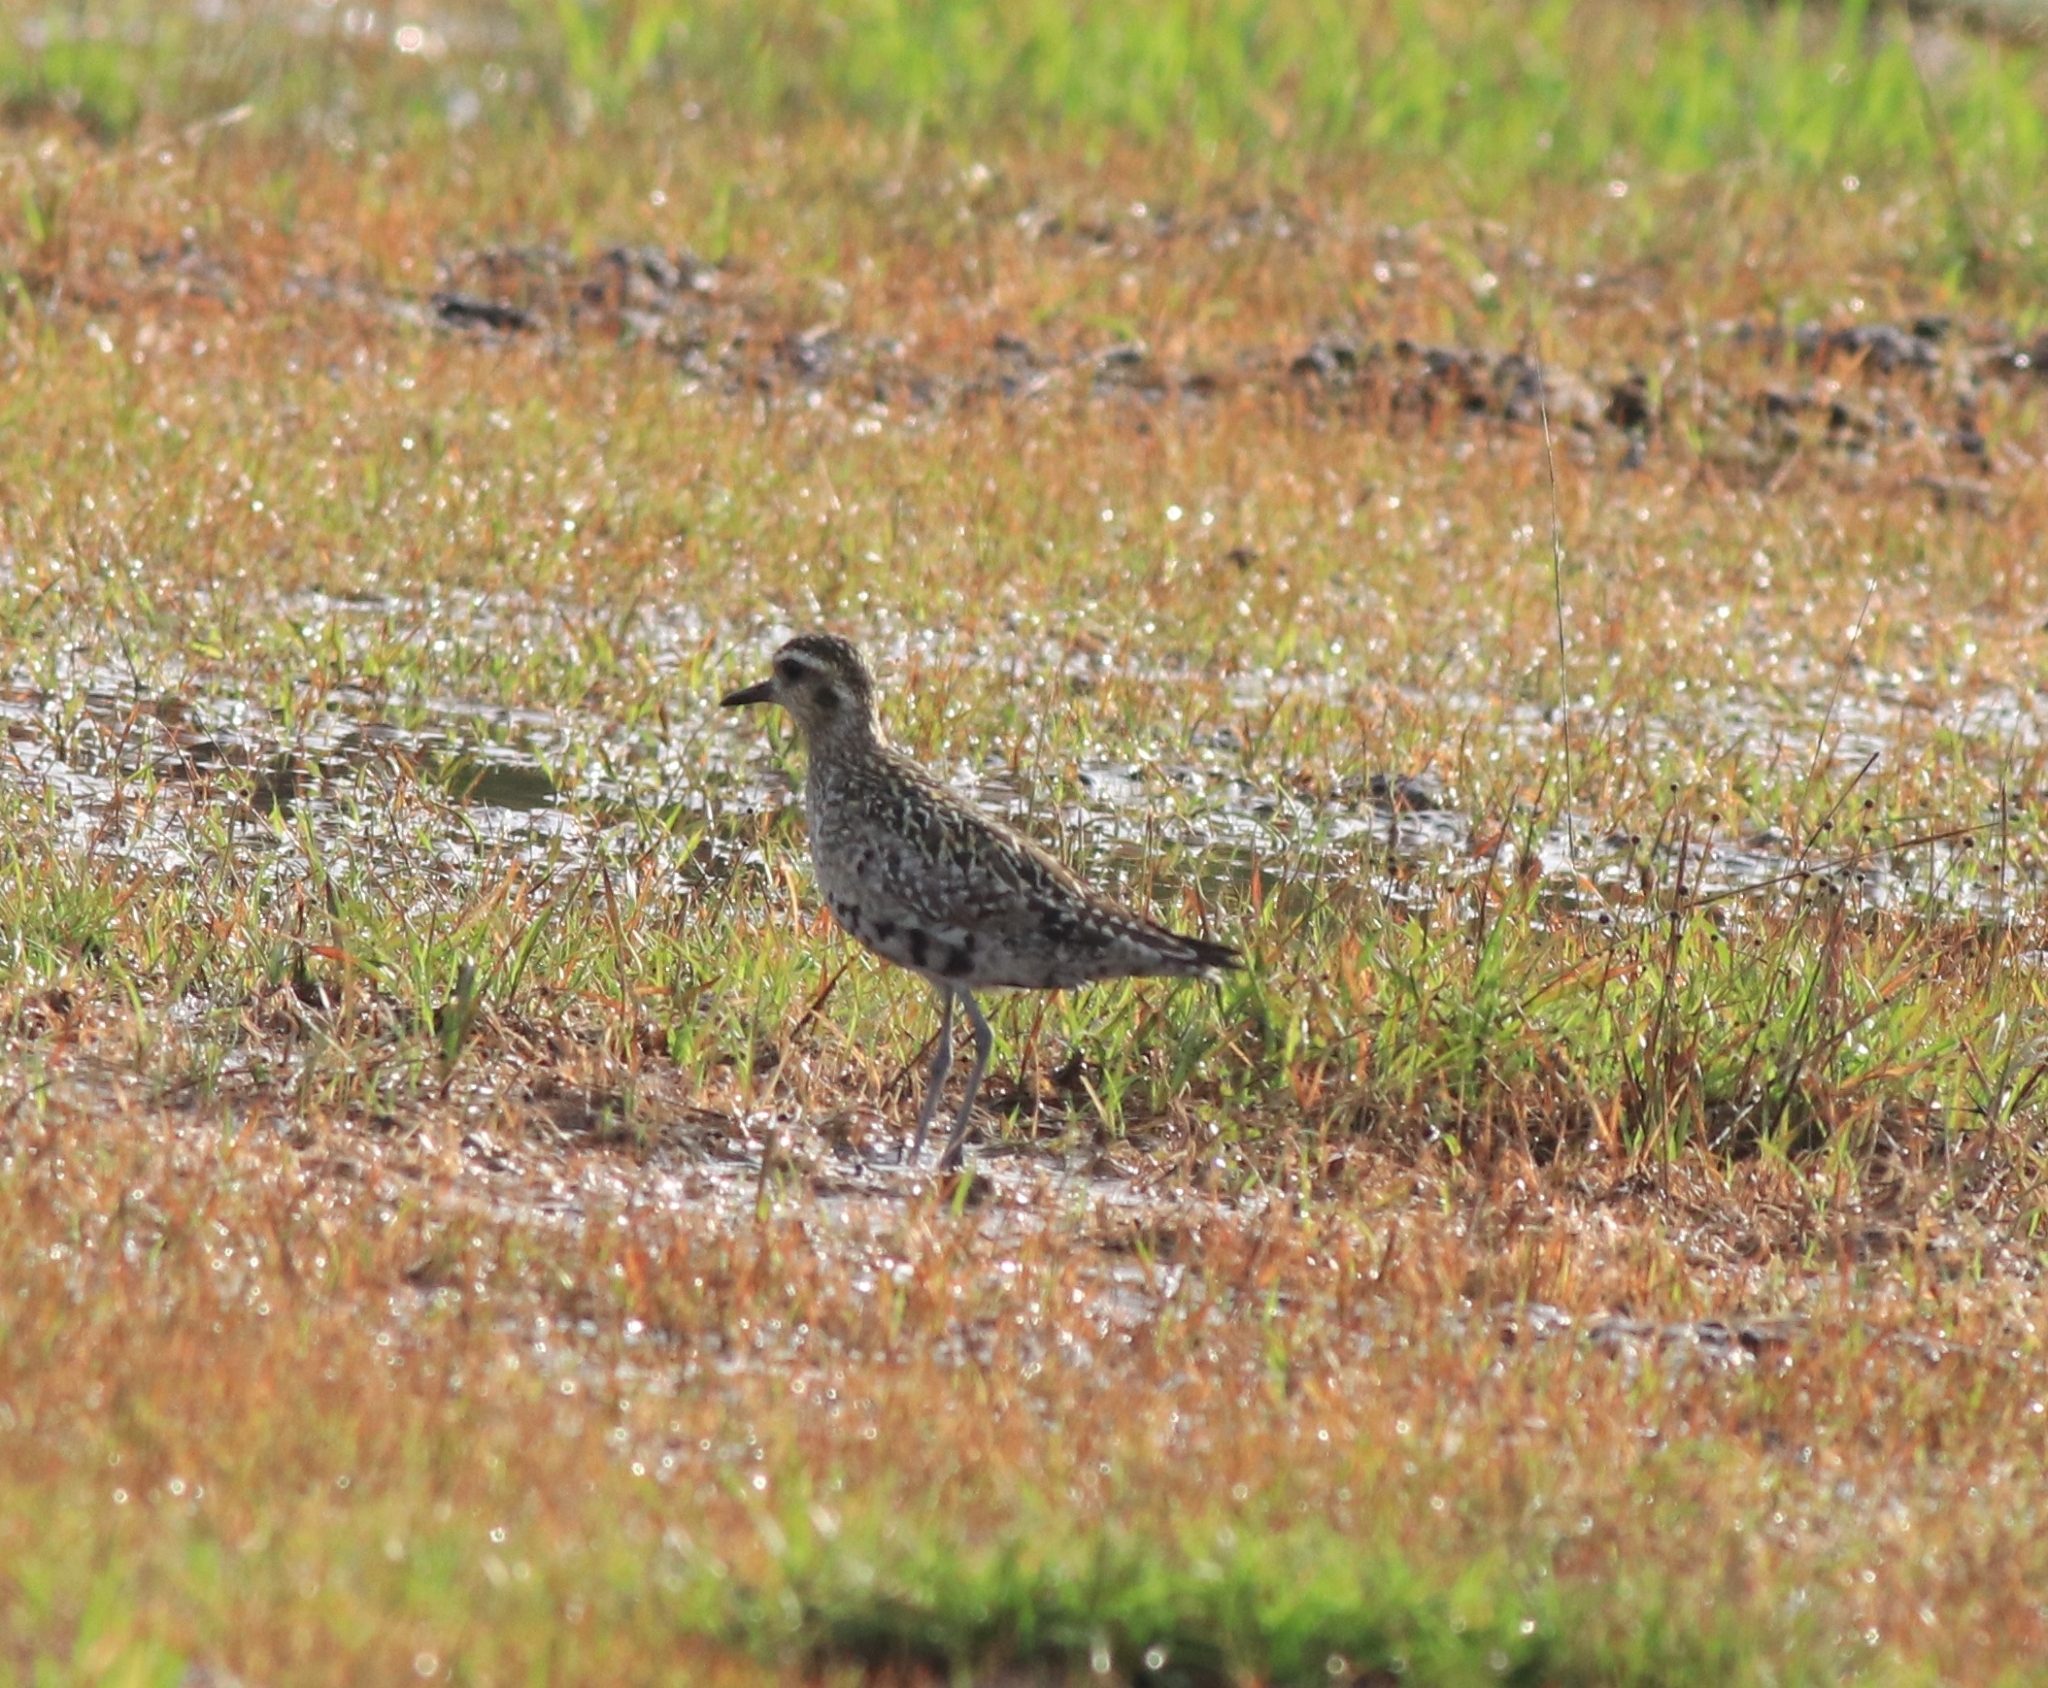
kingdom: Animalia
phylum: Chordata
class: Aves
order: Charadriiformes
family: Charadriidae
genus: Pluvialis
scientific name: Pluvialis fulva
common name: Pacific golden plover
